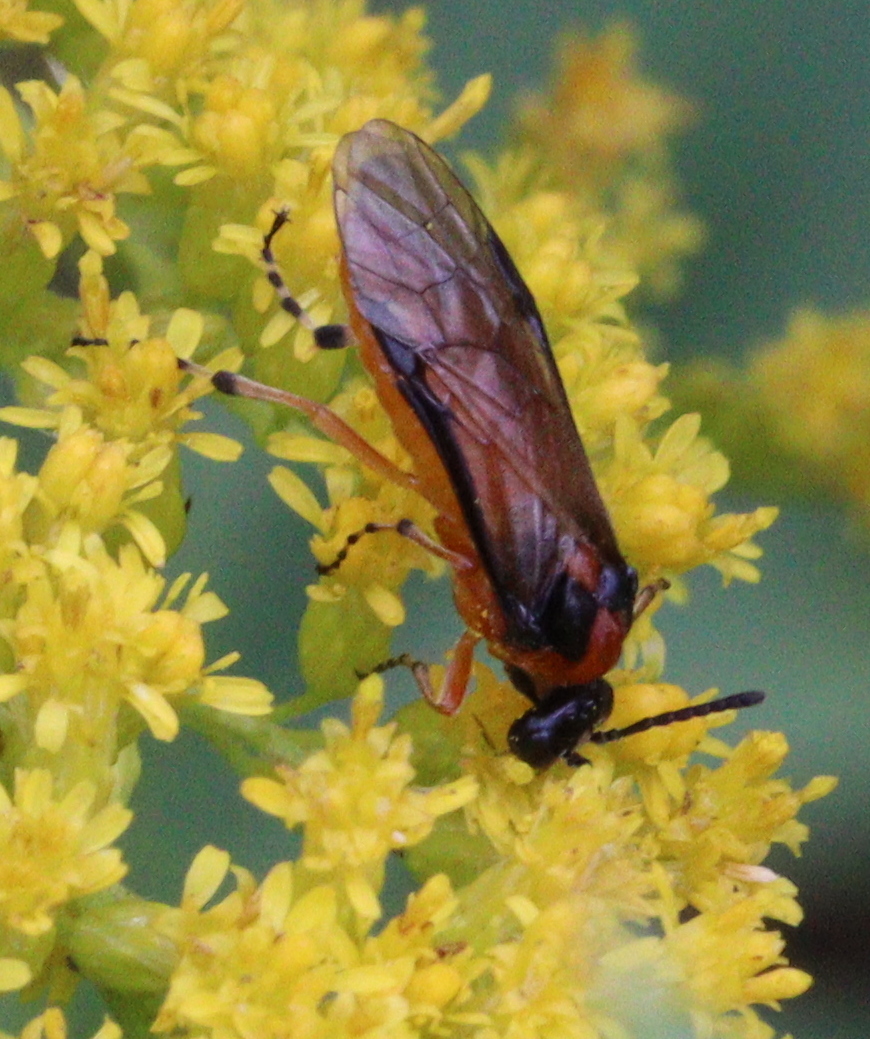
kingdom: Animalia
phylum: Arthropoda
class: Insecta
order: Hymenoptera
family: Tenthredinidae
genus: Athalia
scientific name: Athalia rosae
